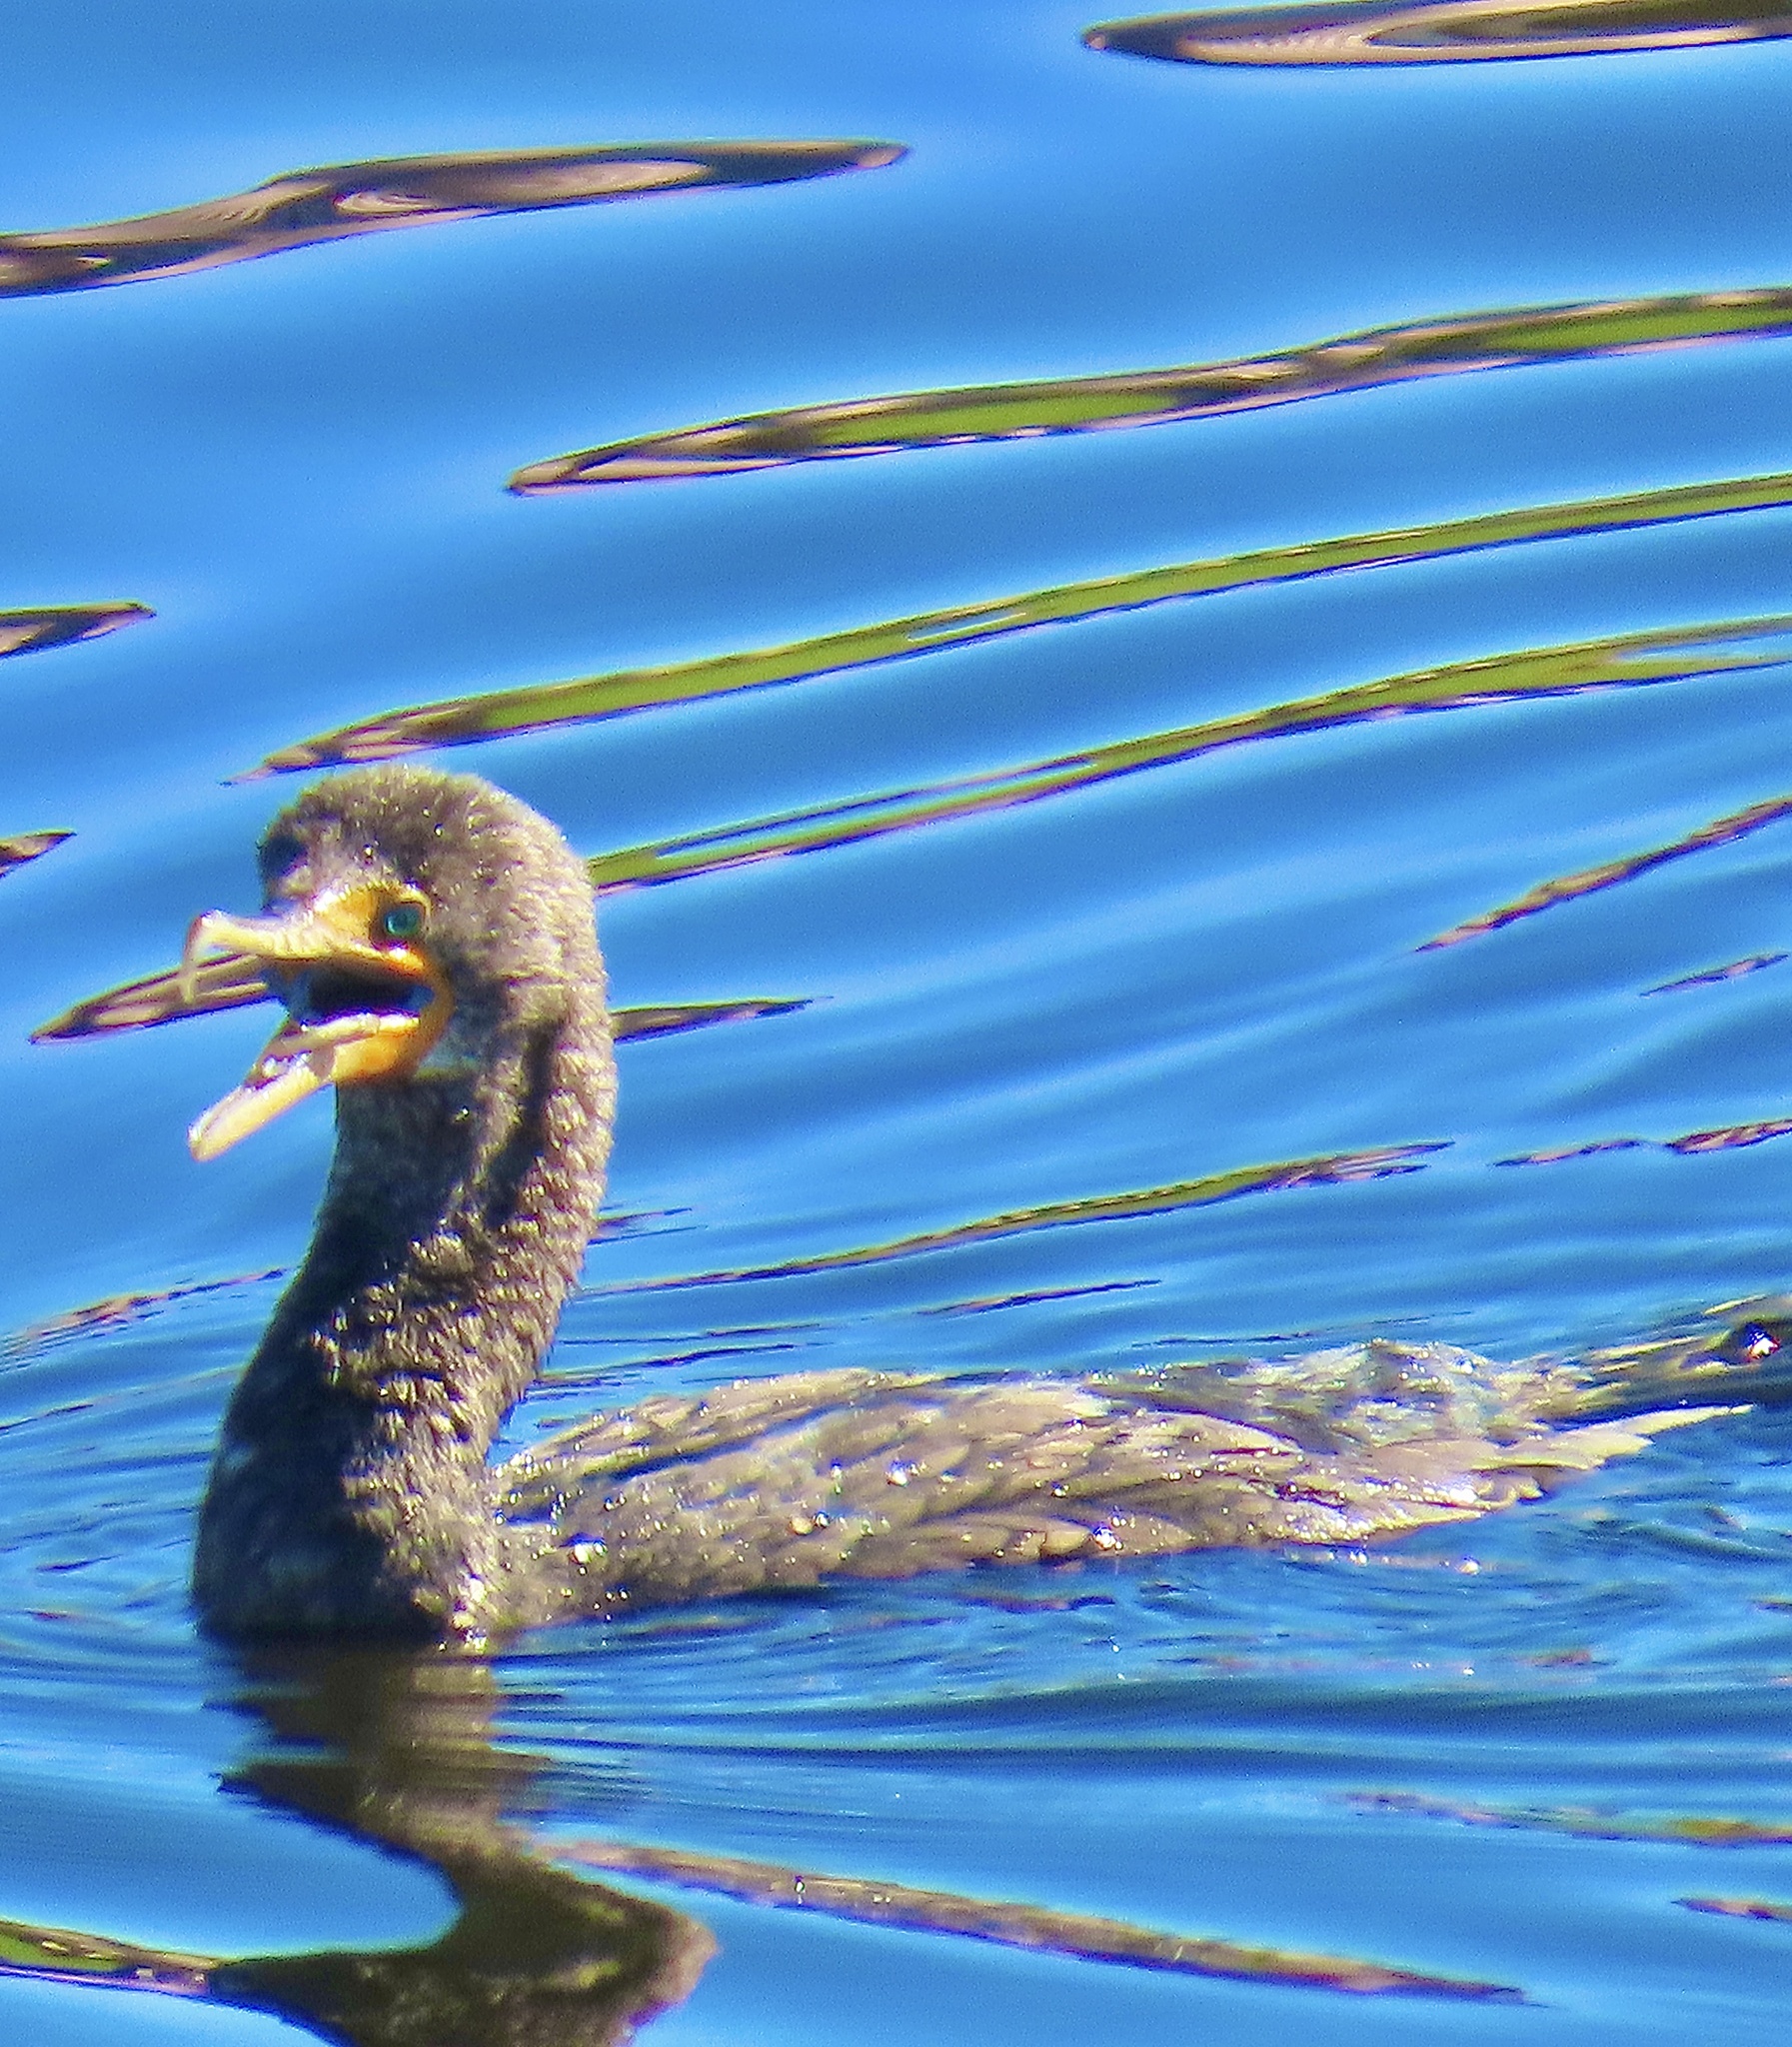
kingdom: Animalia
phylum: Chordata
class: Aves
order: Suliformes
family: Phalacrocoracidae
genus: Phalacrocorax
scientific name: Phalacrocorax auritus
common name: Double-crested cormorant
